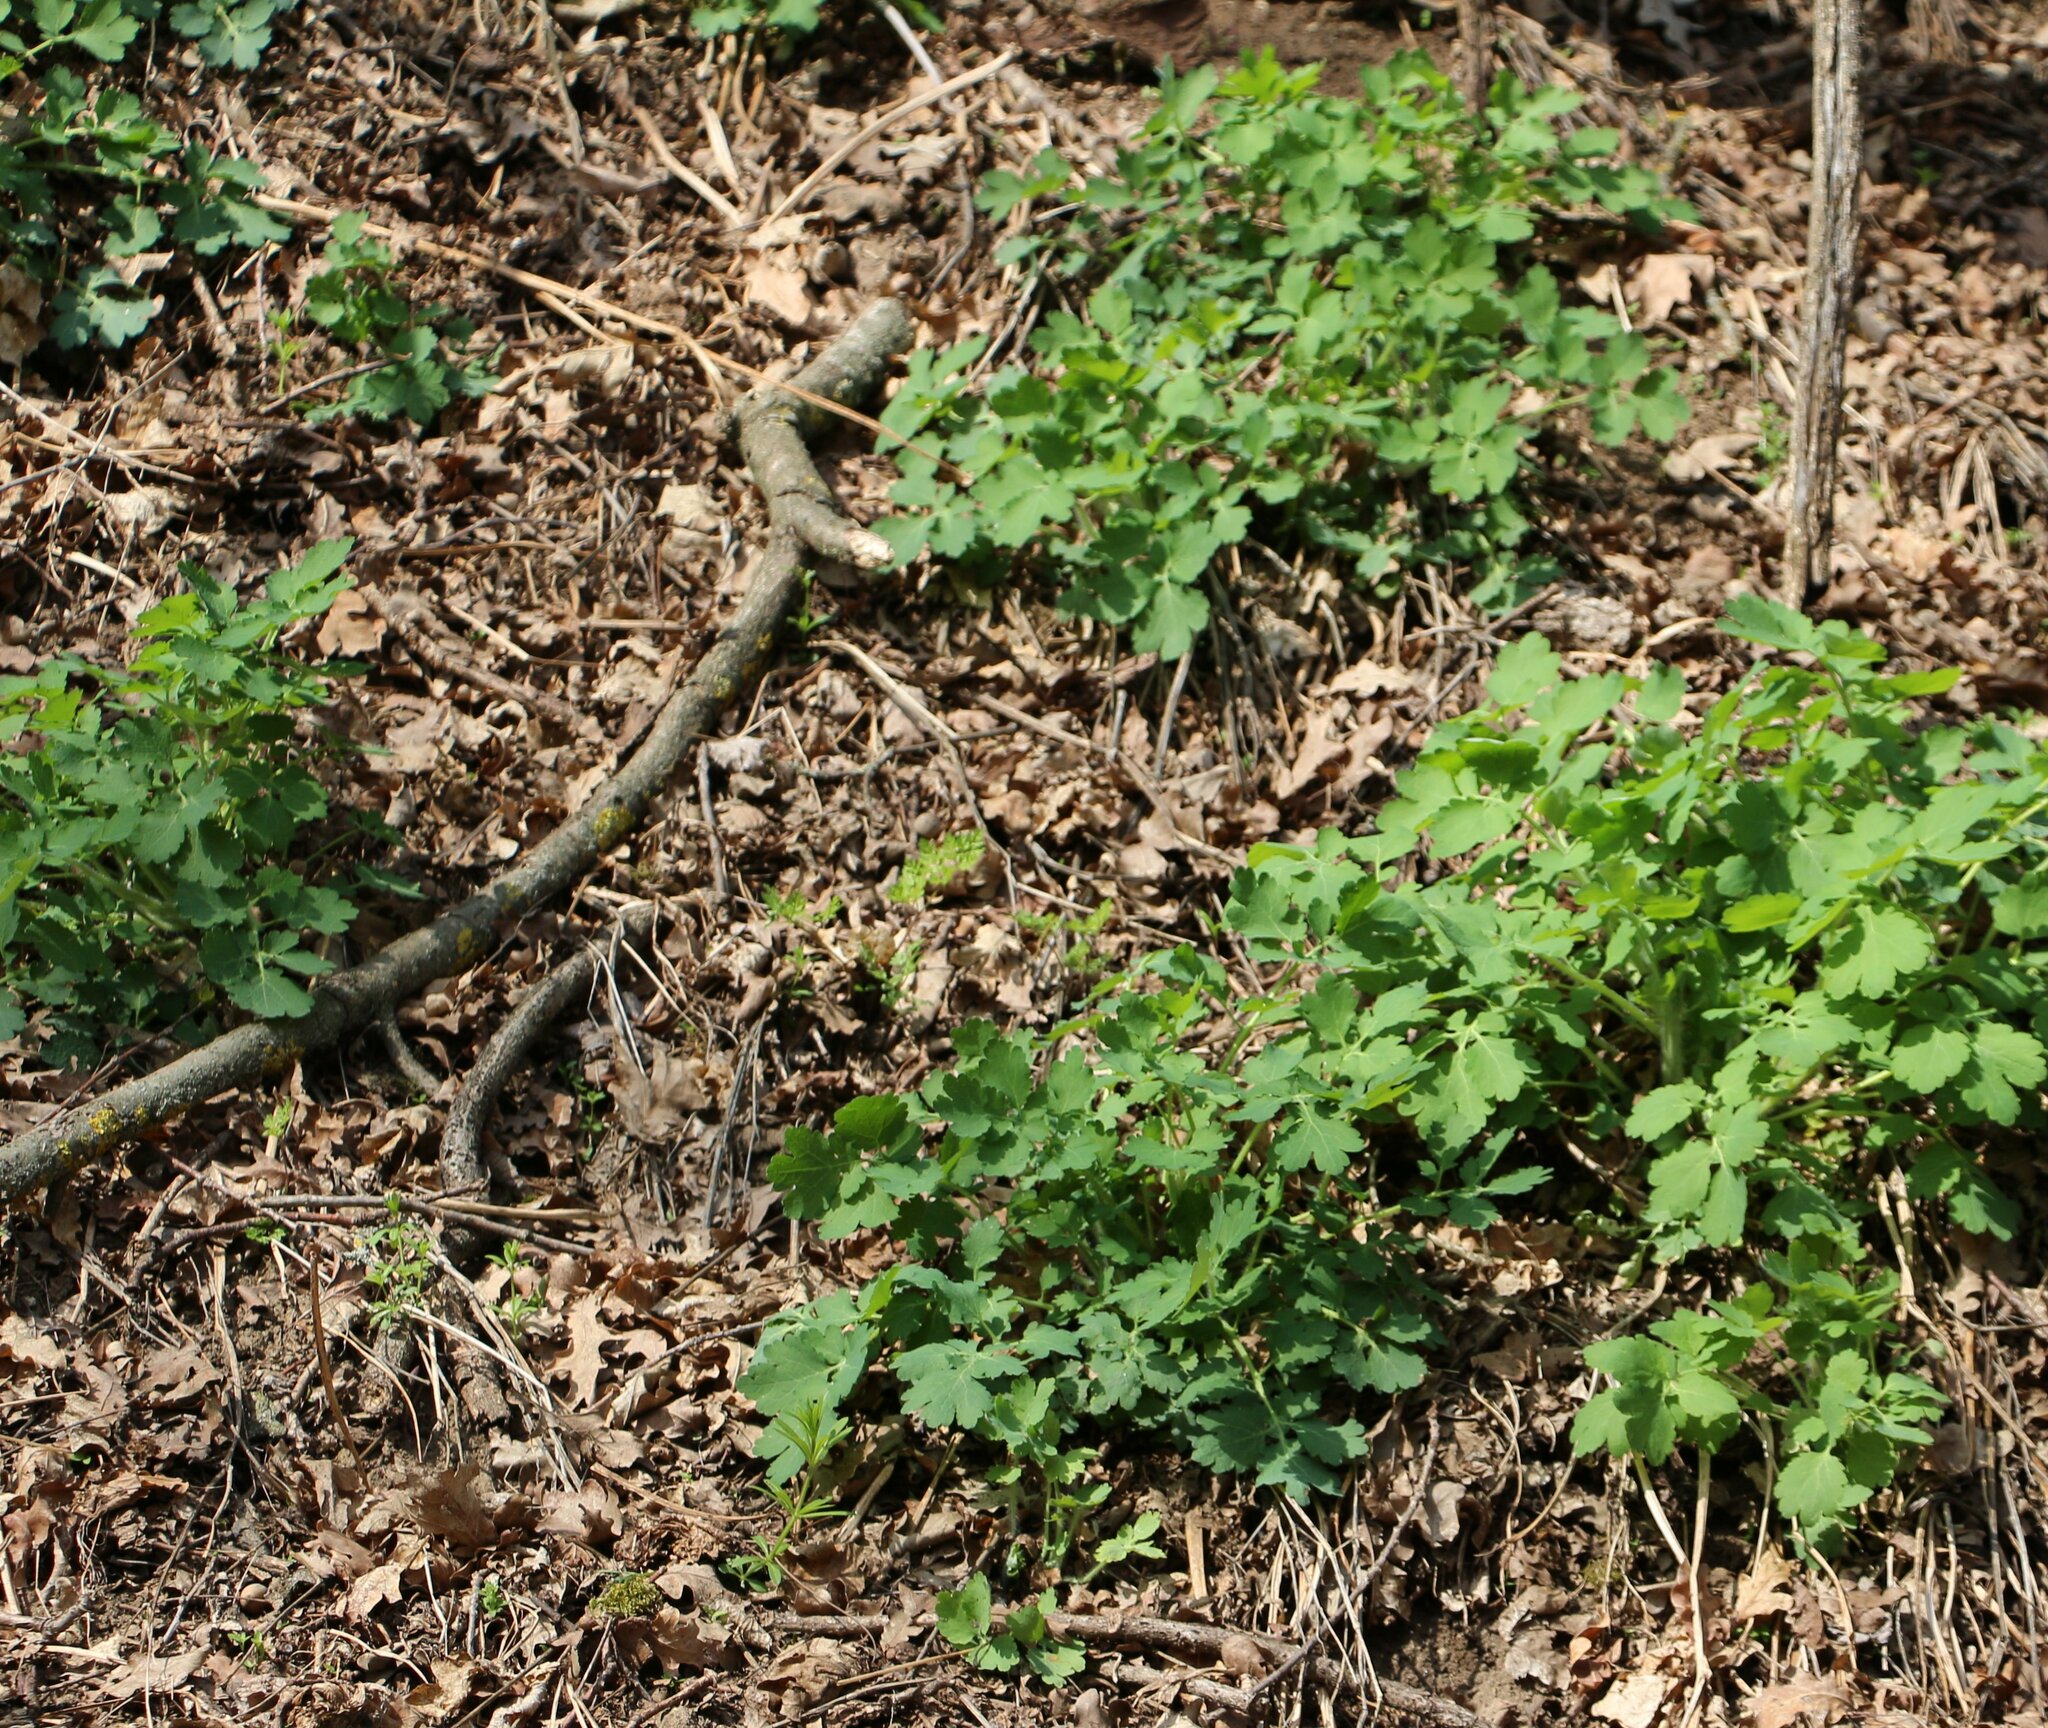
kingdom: Plantae
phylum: Tracheophyta
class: Magnoliopsida
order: Ranunculales
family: Papaveraceae
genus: Chelidonium
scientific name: Chelidonium majus
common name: Greater celandine
